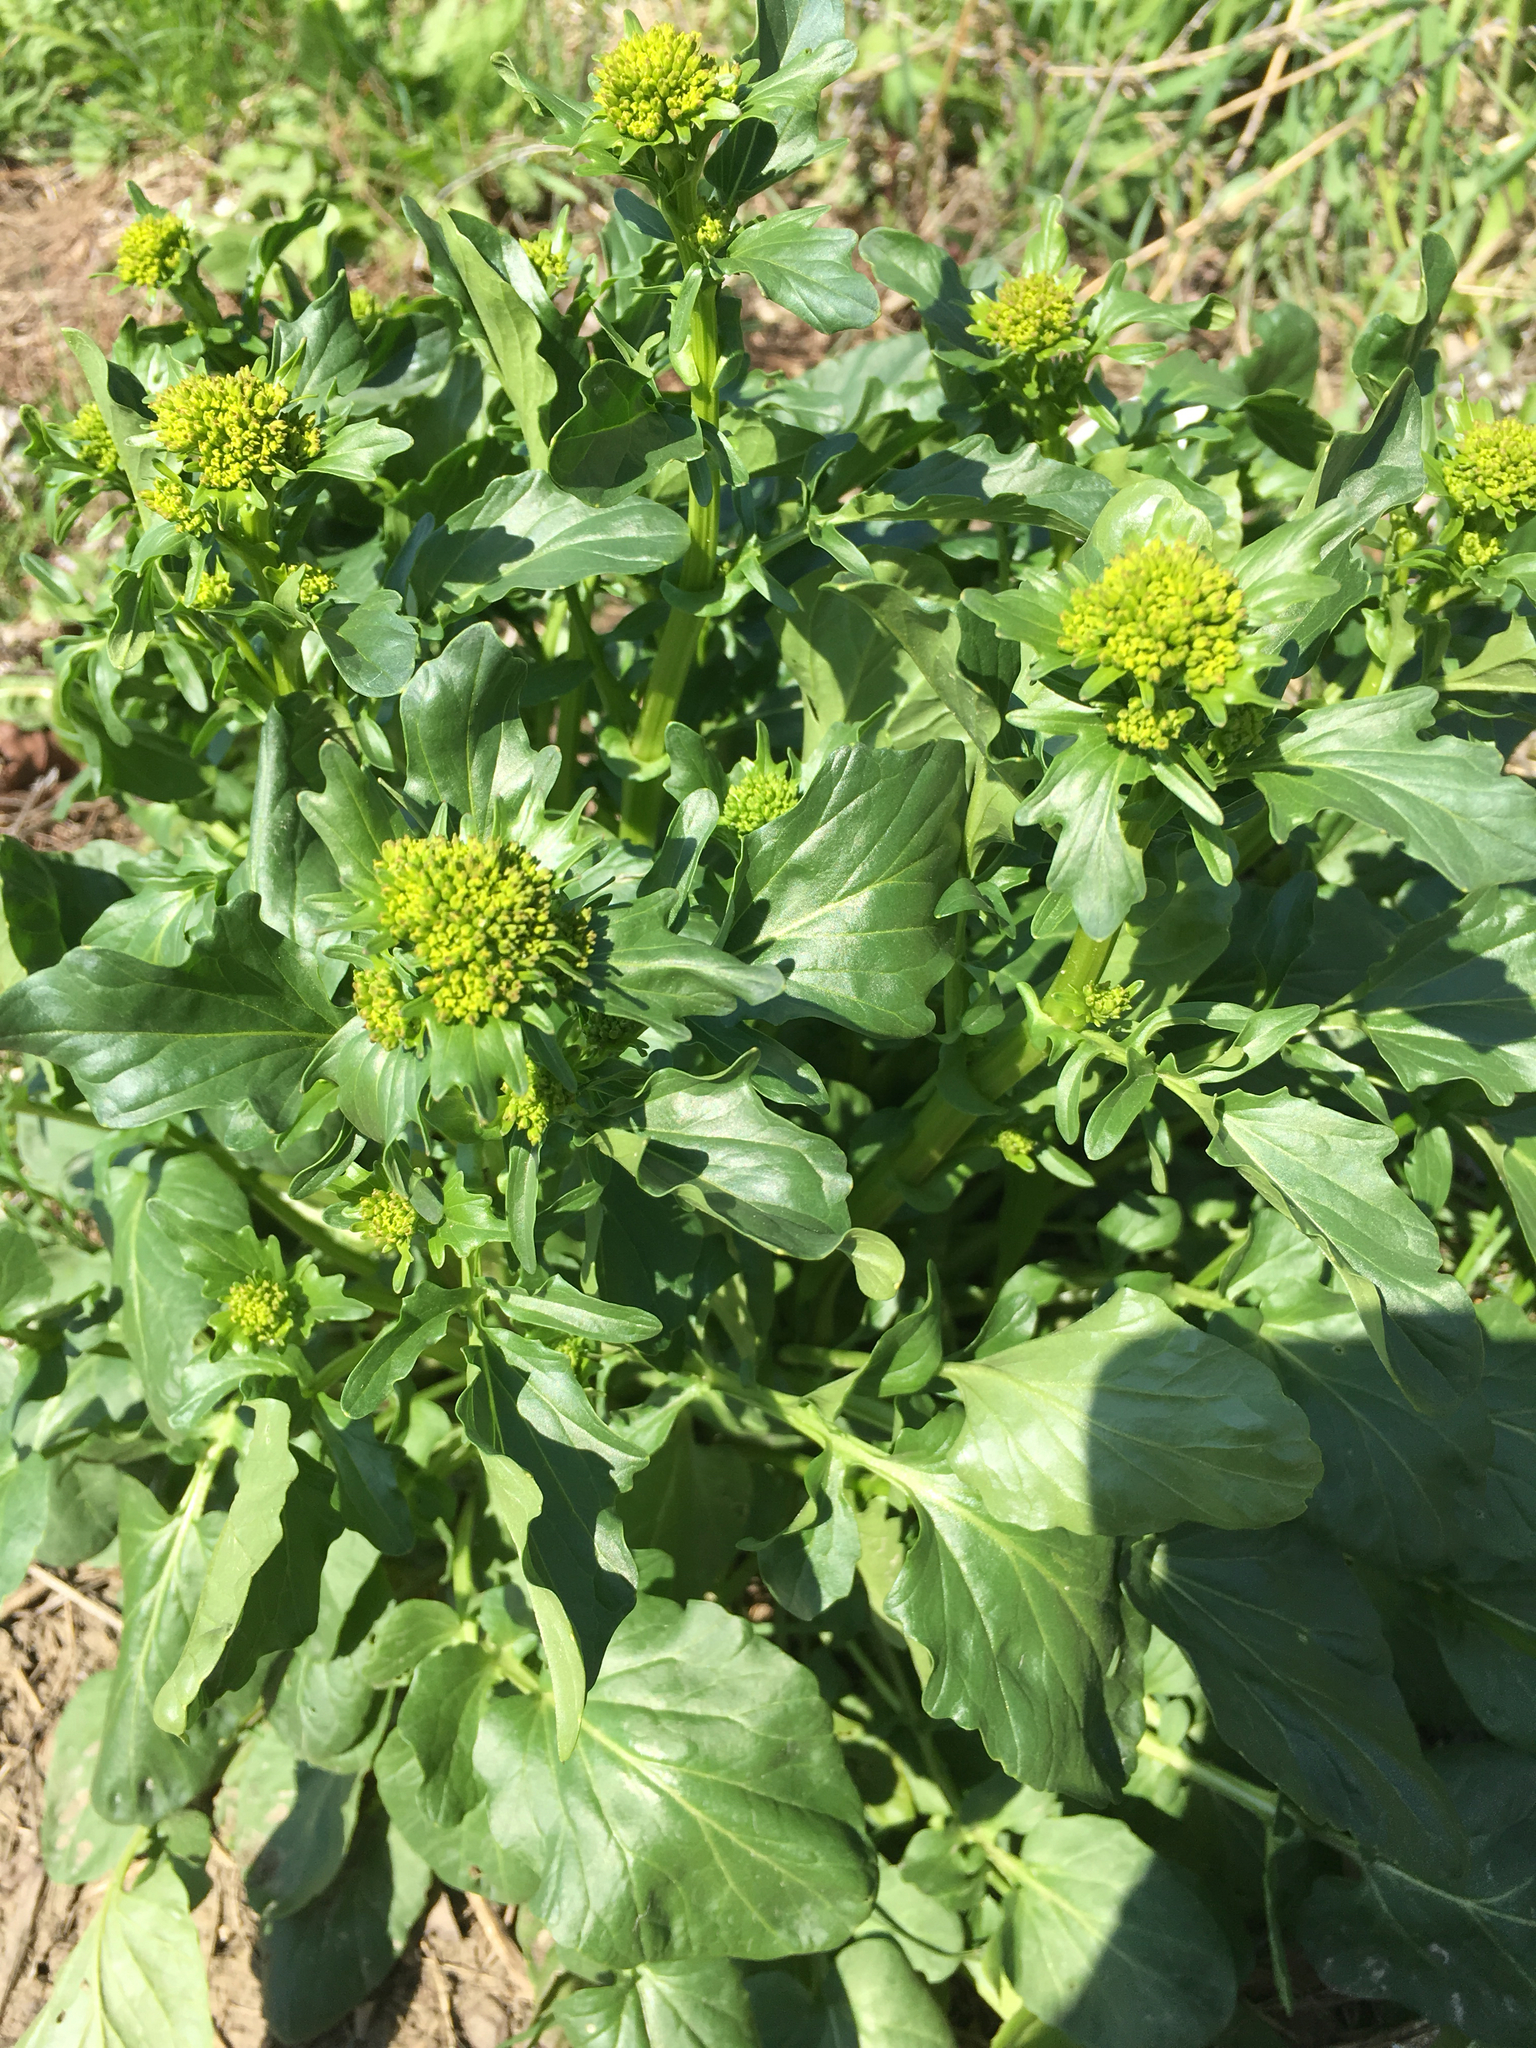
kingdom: Plantae
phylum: Tracheophyta
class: Magnoliopsida
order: Brassicales
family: Brassicaceae
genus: Barbarea
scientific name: Barbarea vulgaris
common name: Cressy-greens
